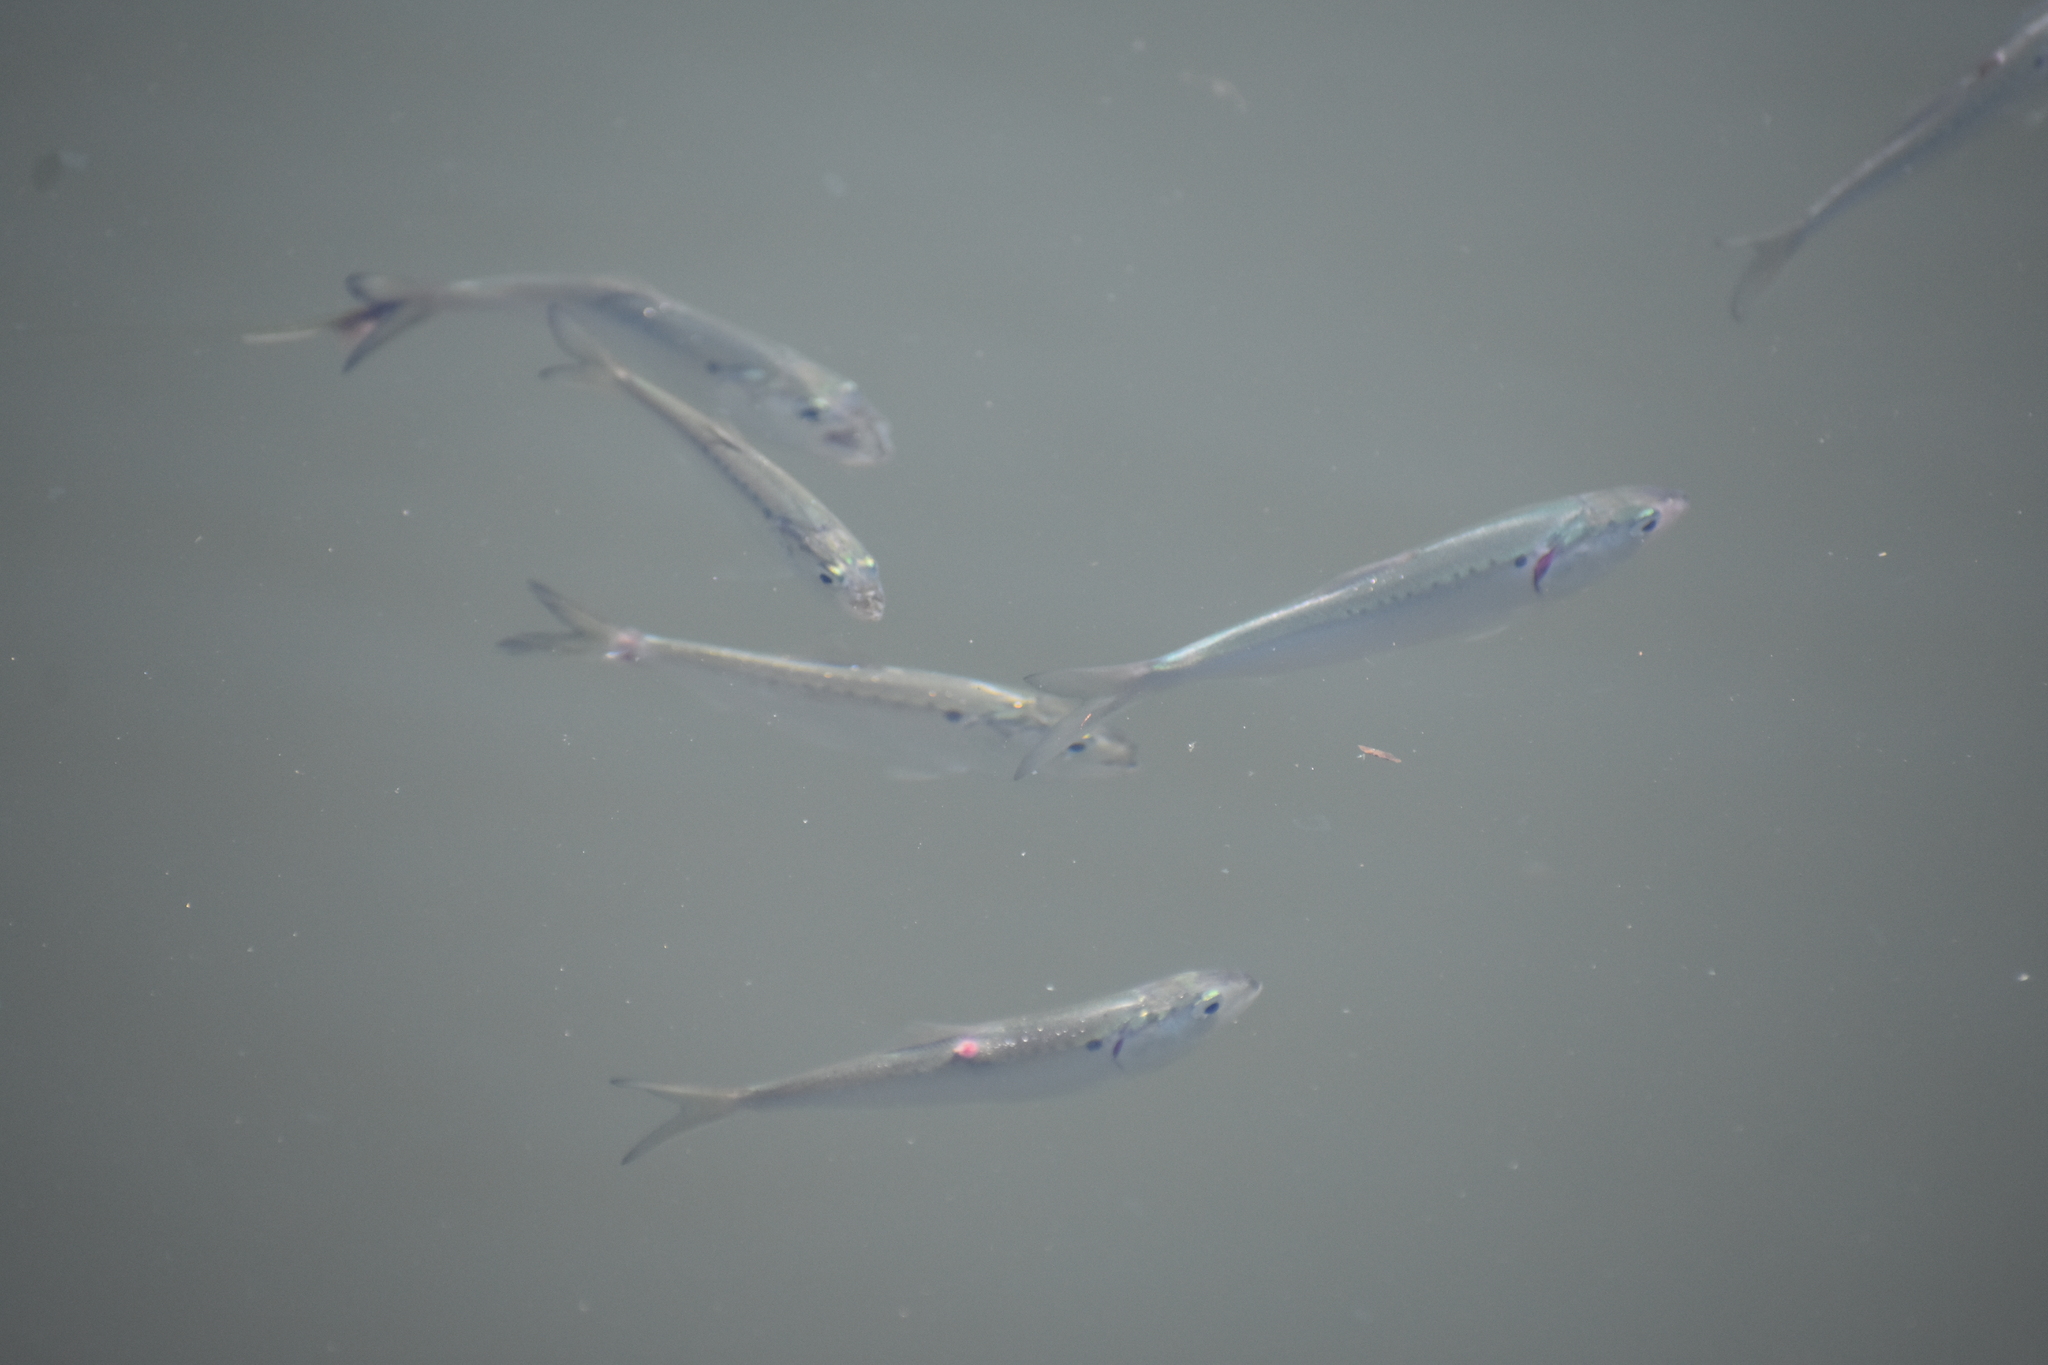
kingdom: Animalia
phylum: Chordata
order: Clupeiformes
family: Clupeidae
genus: Brevoortia
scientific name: Brevoortia tyrannus
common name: Atlantic menhaden
